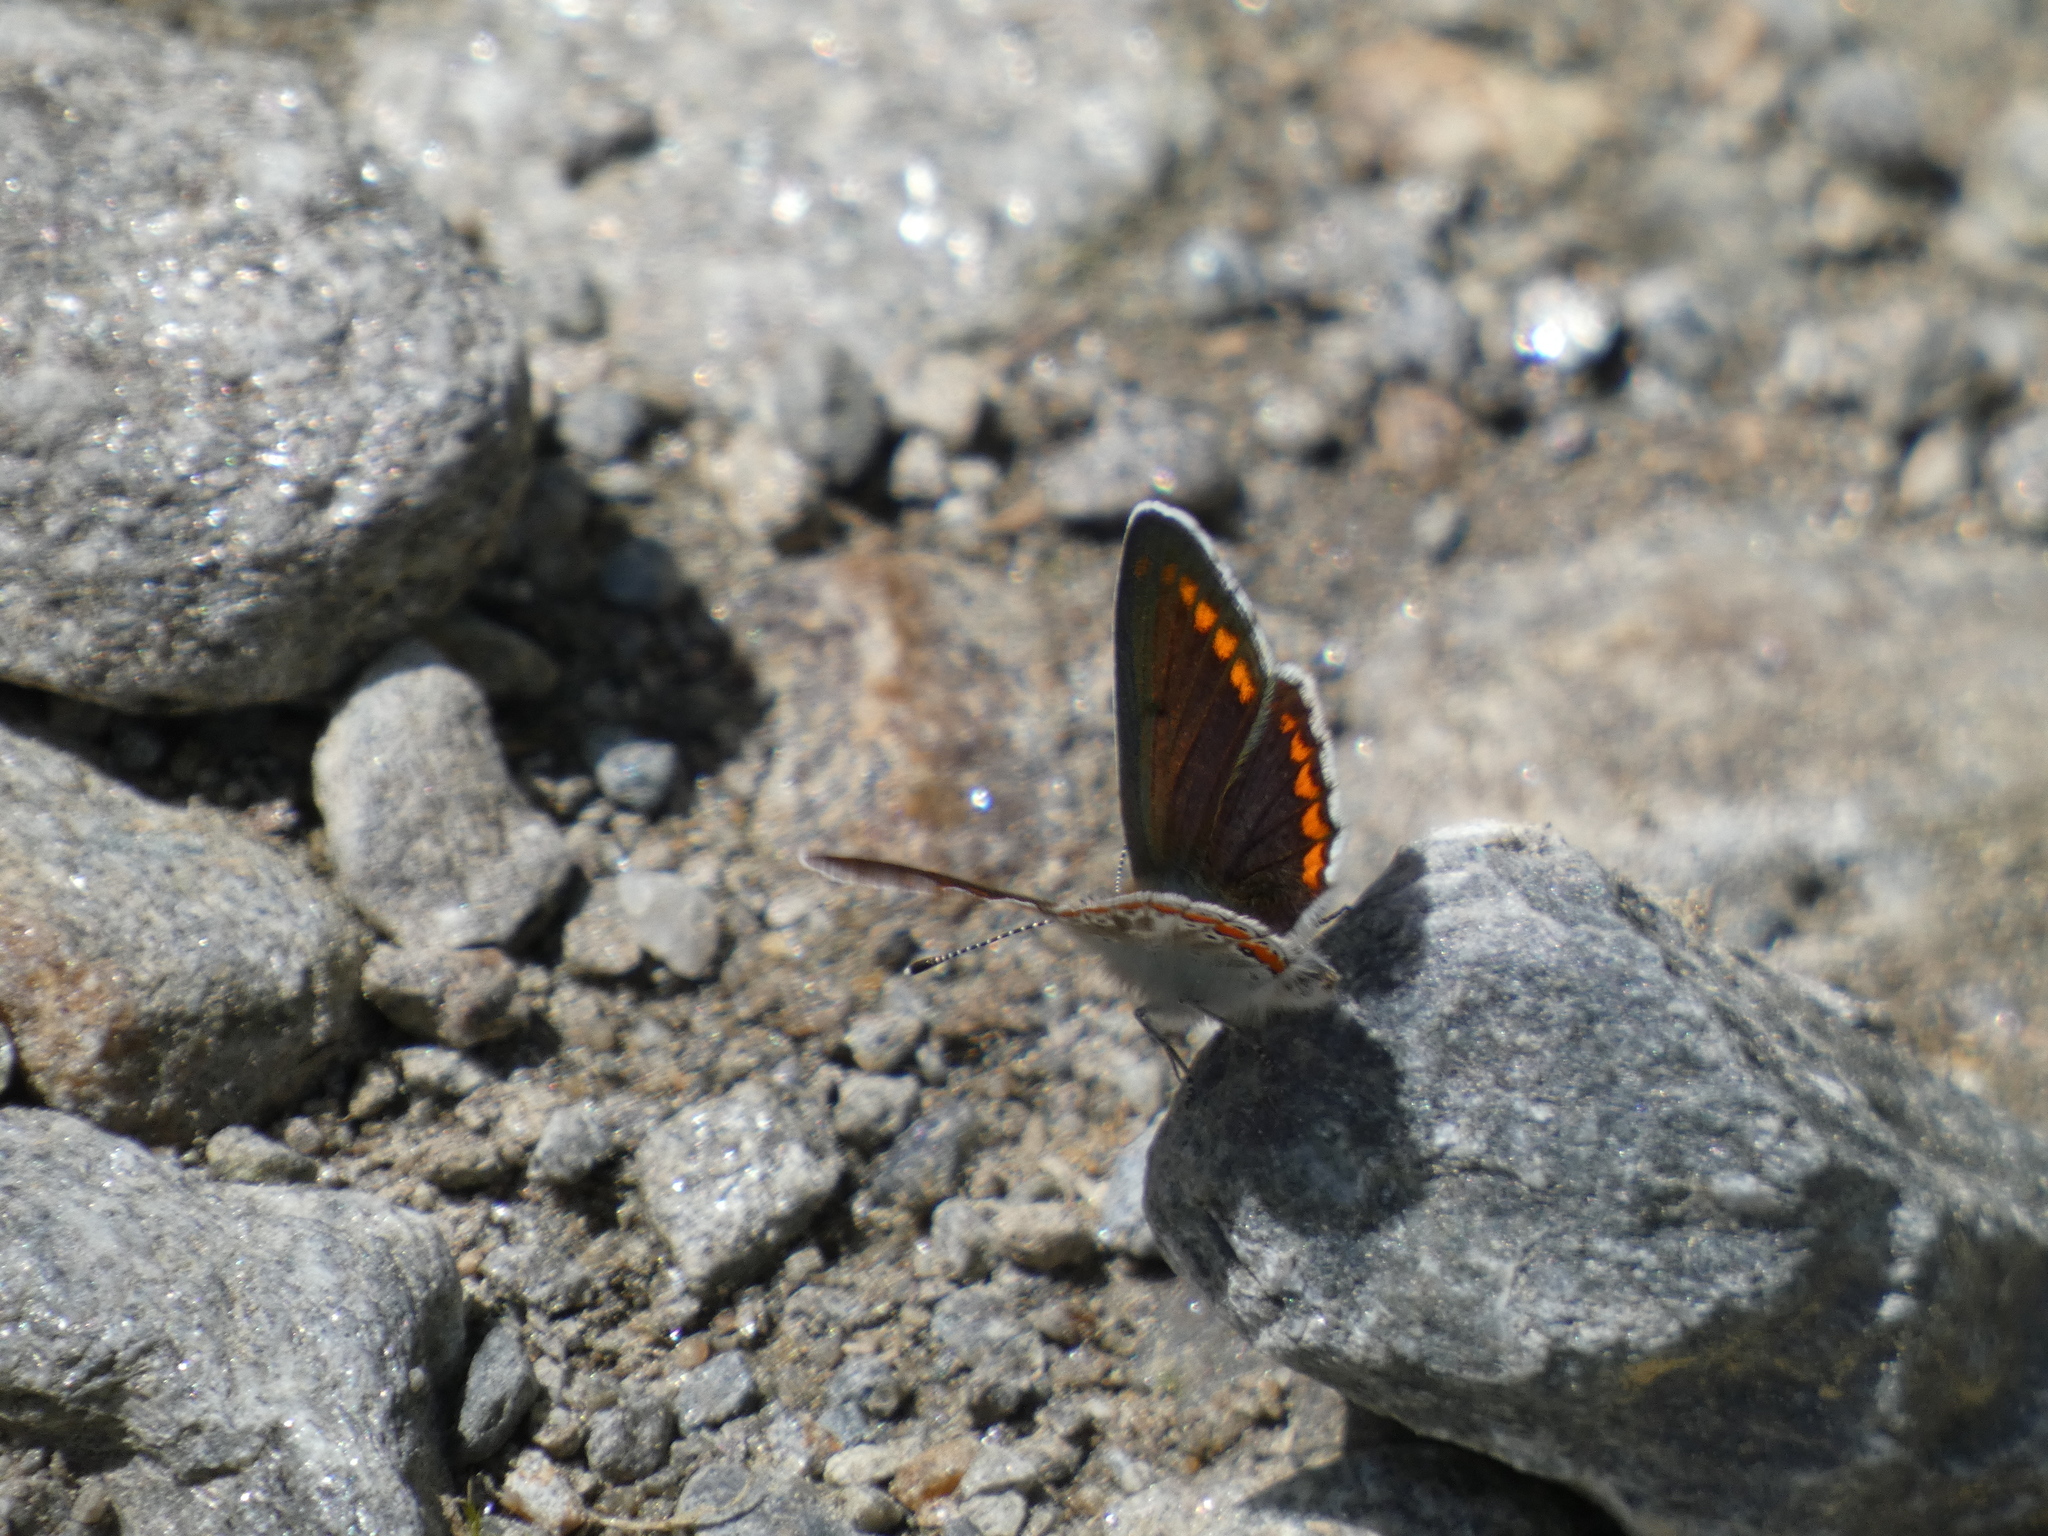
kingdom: Animalia
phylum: Arthropoda
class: Insecta
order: Lepidoptera
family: Lycaenidae
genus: Aricia
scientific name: Aricia agestis
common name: Brown argus
